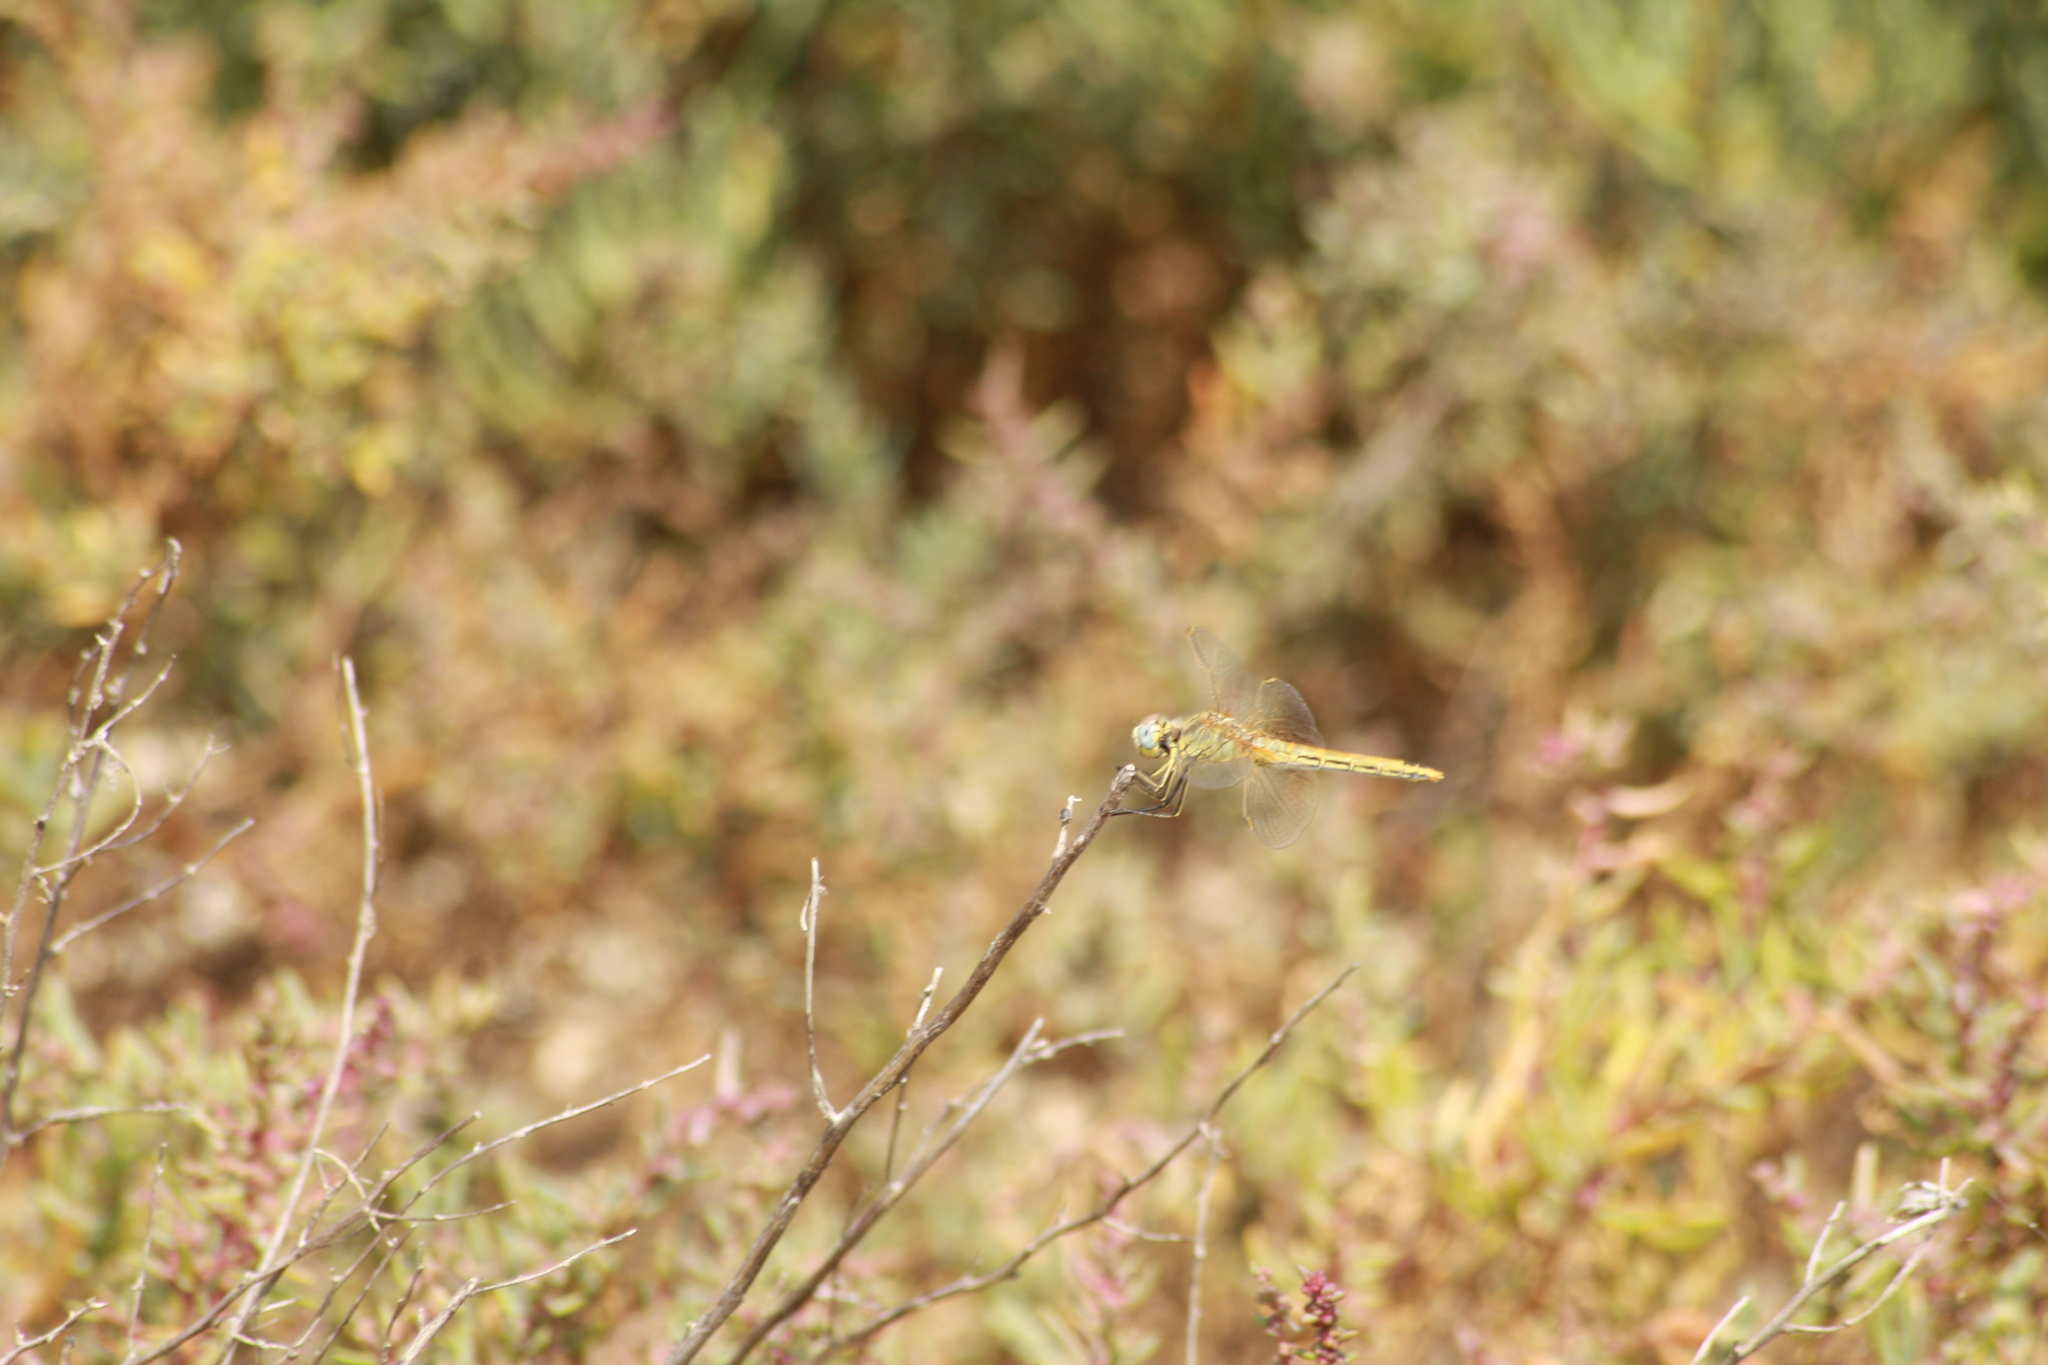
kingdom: Animalia
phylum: Arthropoda
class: Insecta
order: Odonata
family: Libellulidae
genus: Sympetrum
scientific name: Sympetrum fonscolombii
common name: Red-veined darter
